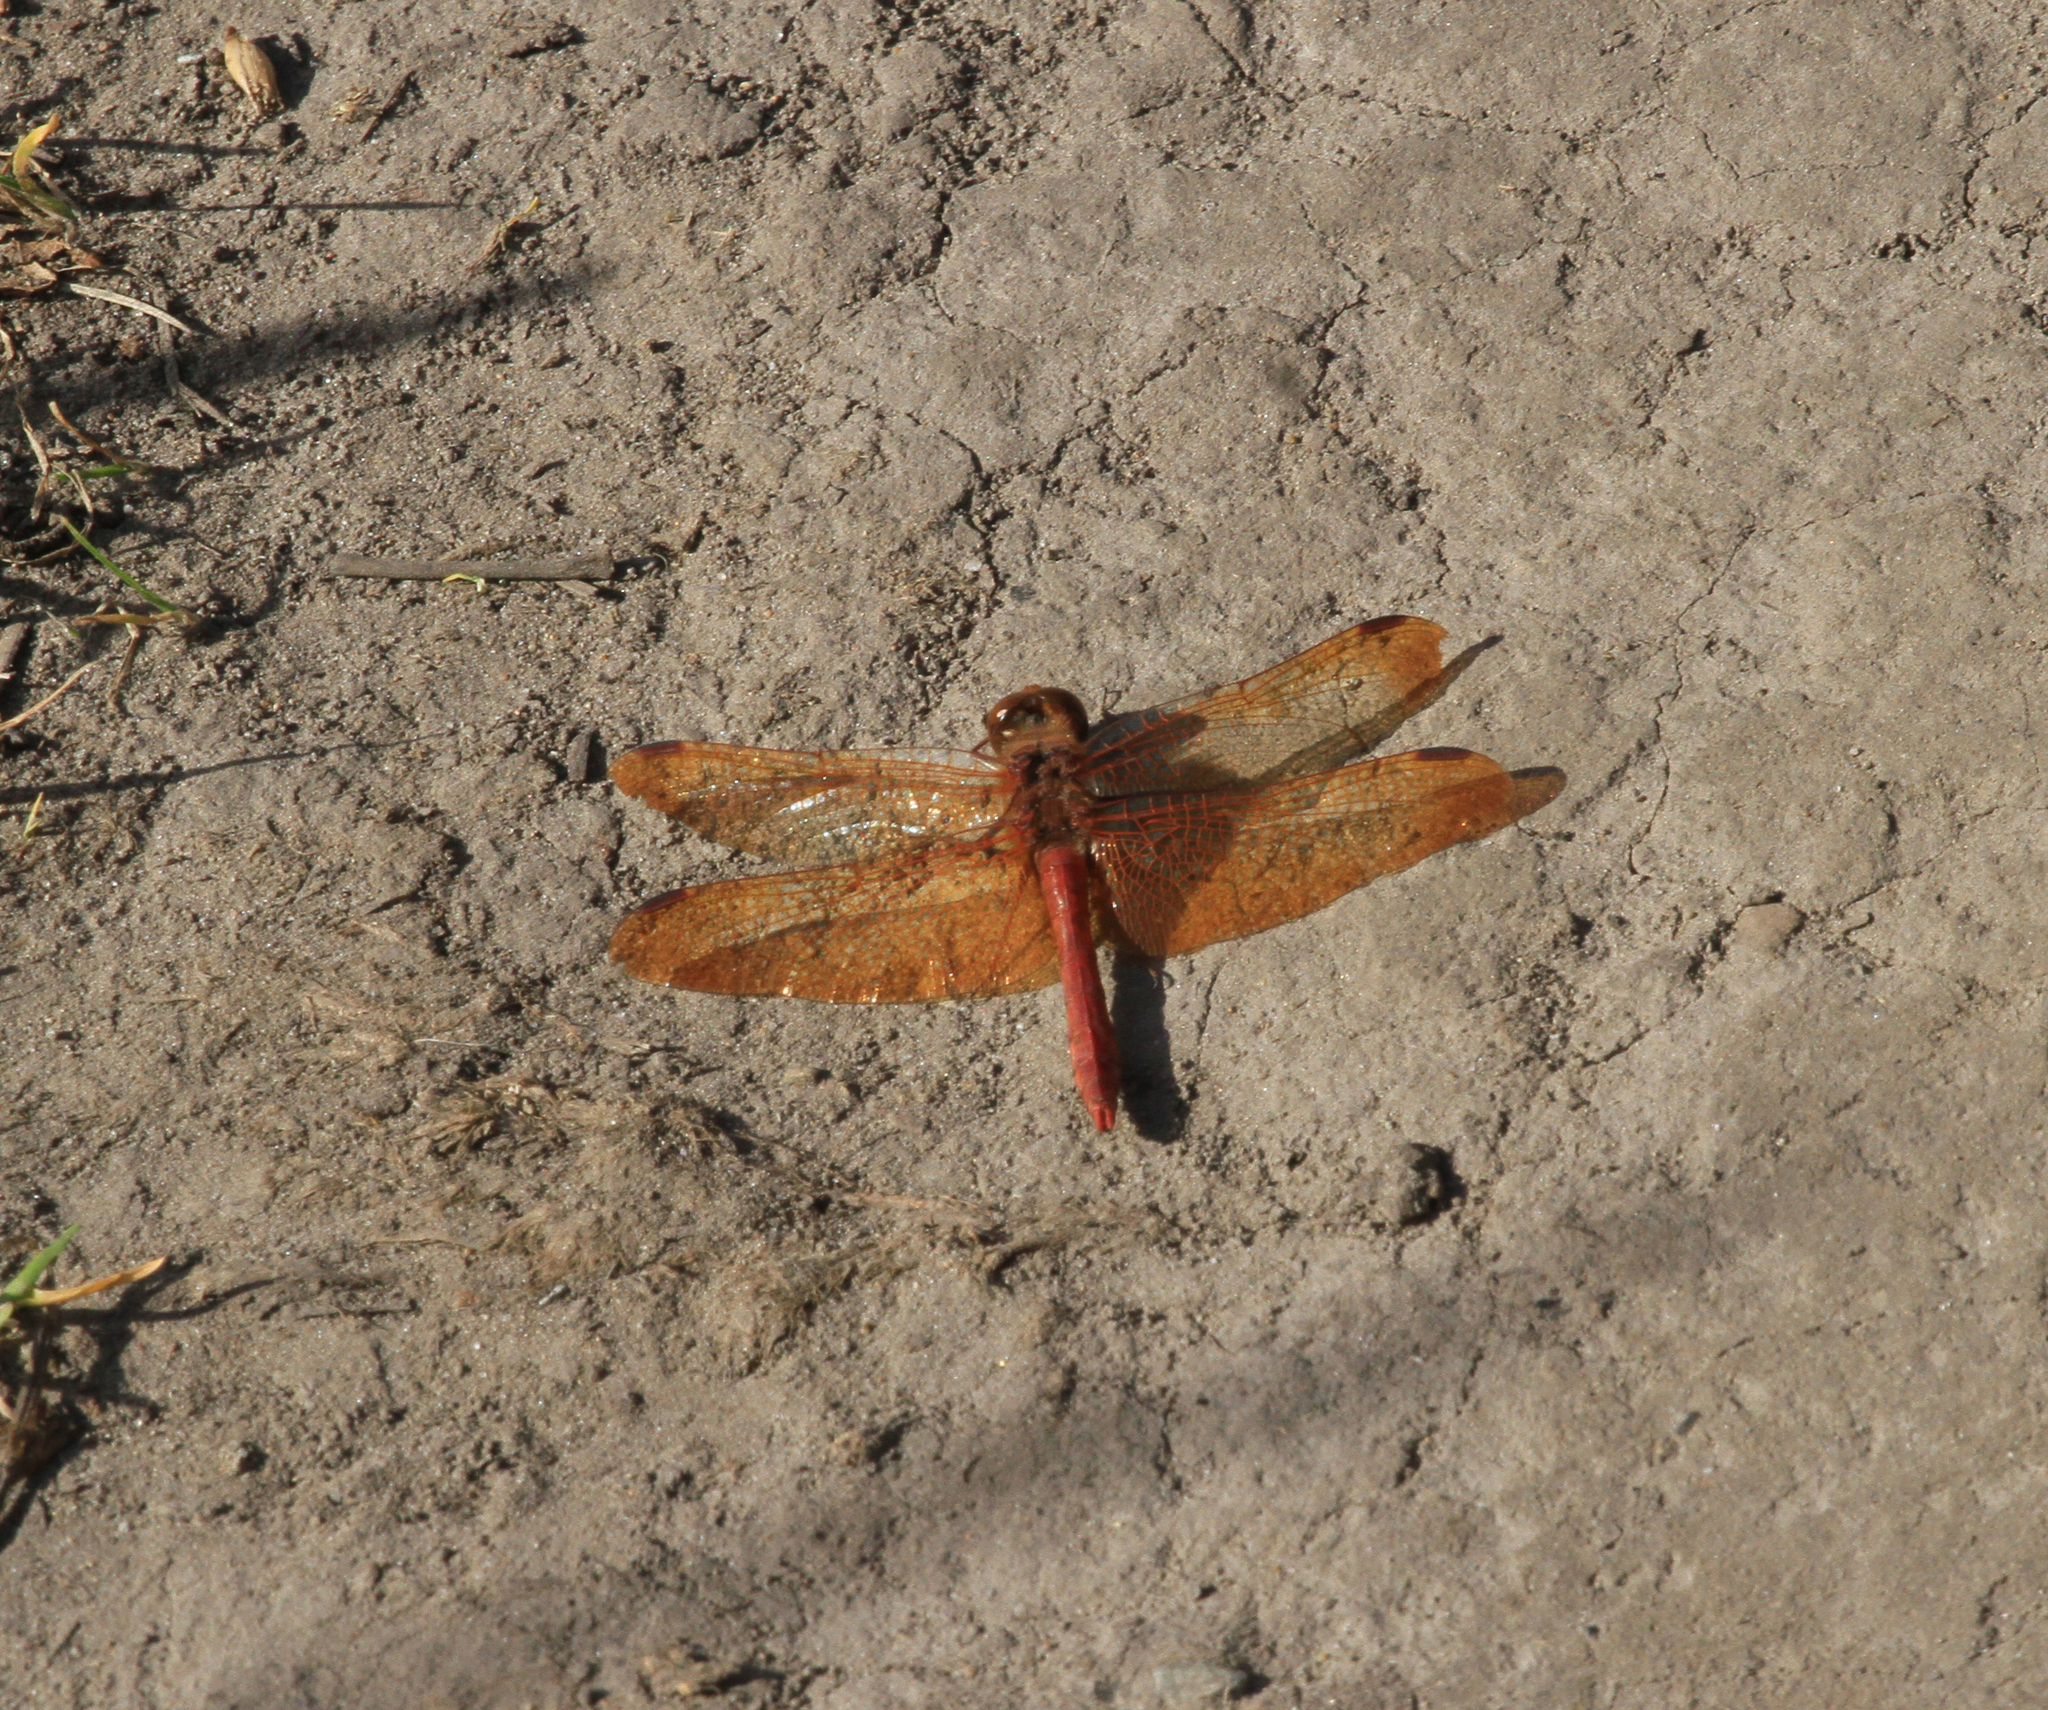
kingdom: Animalia
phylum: Arthropoda
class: Insecta
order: Odonata
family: Libellulidae
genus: Sympetrum
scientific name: Sympetrum croceolum
